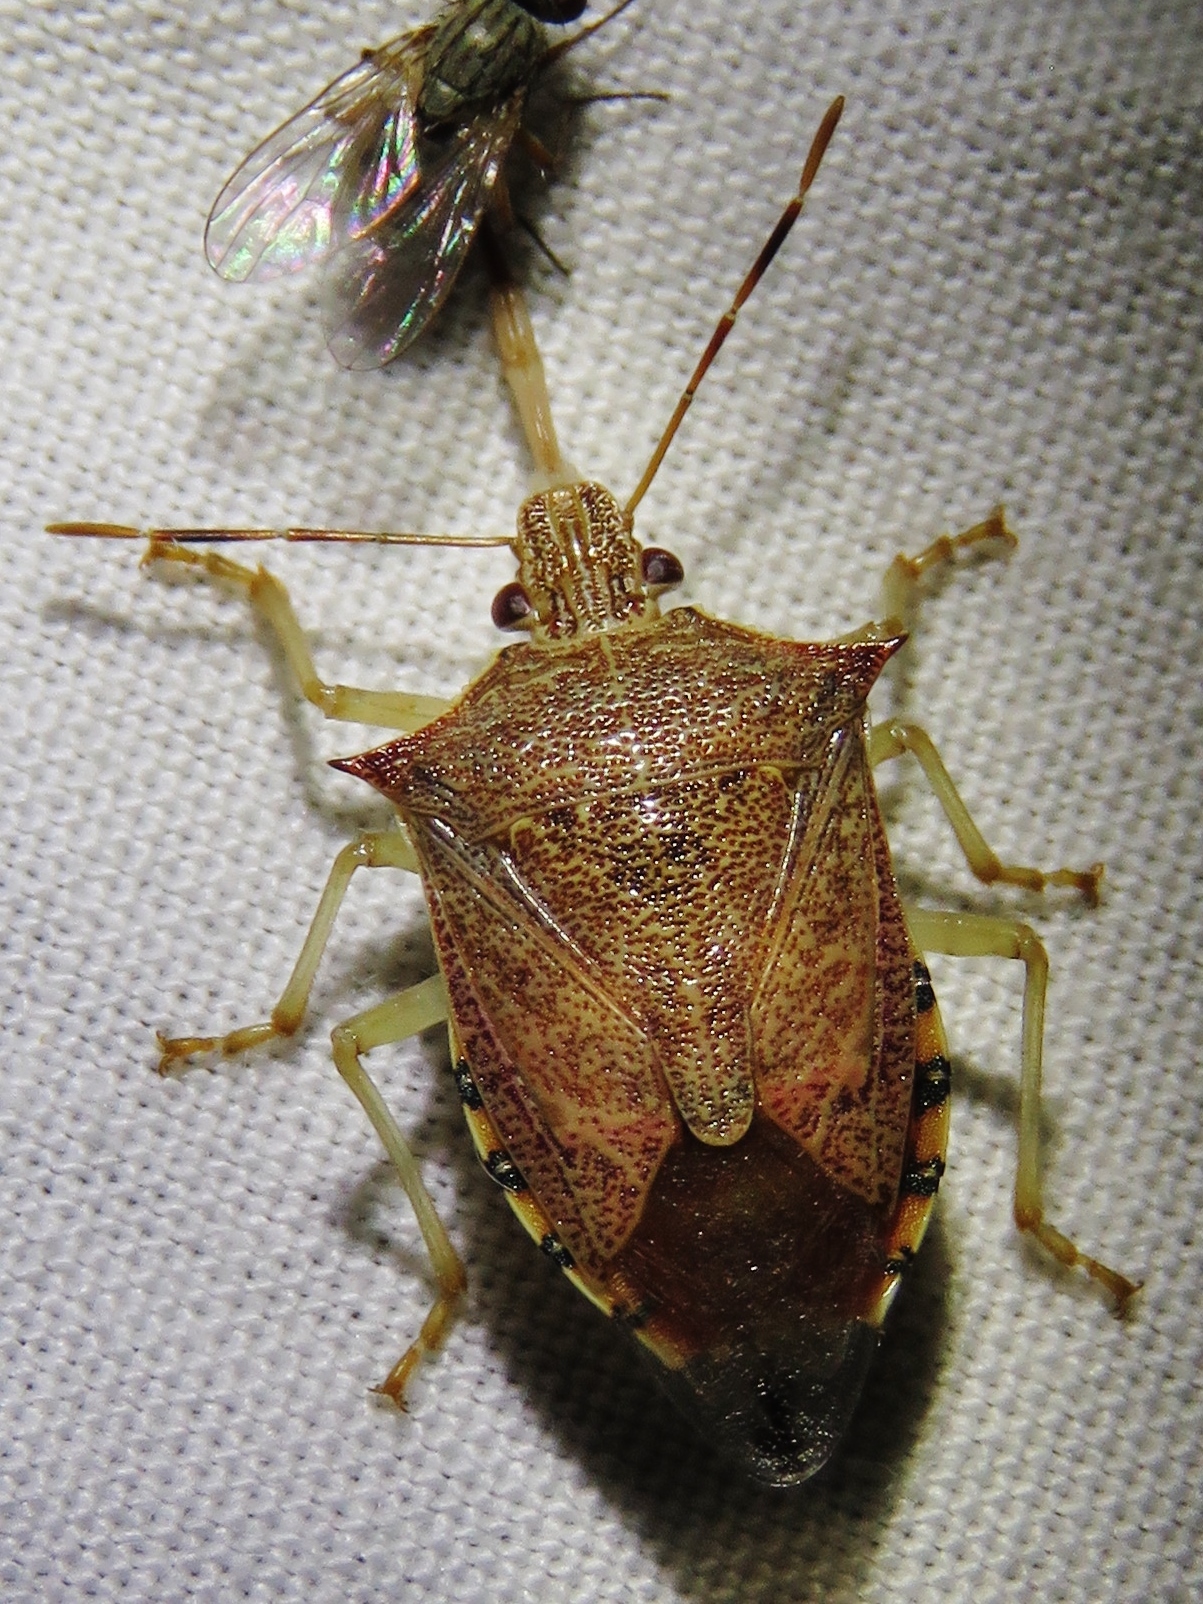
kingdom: Animalia
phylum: Arthropoda
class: Insecta
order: Hemiptera
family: Pentatomidae
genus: Podisus
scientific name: Podisus maculiventris
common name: Spined soldier bug
